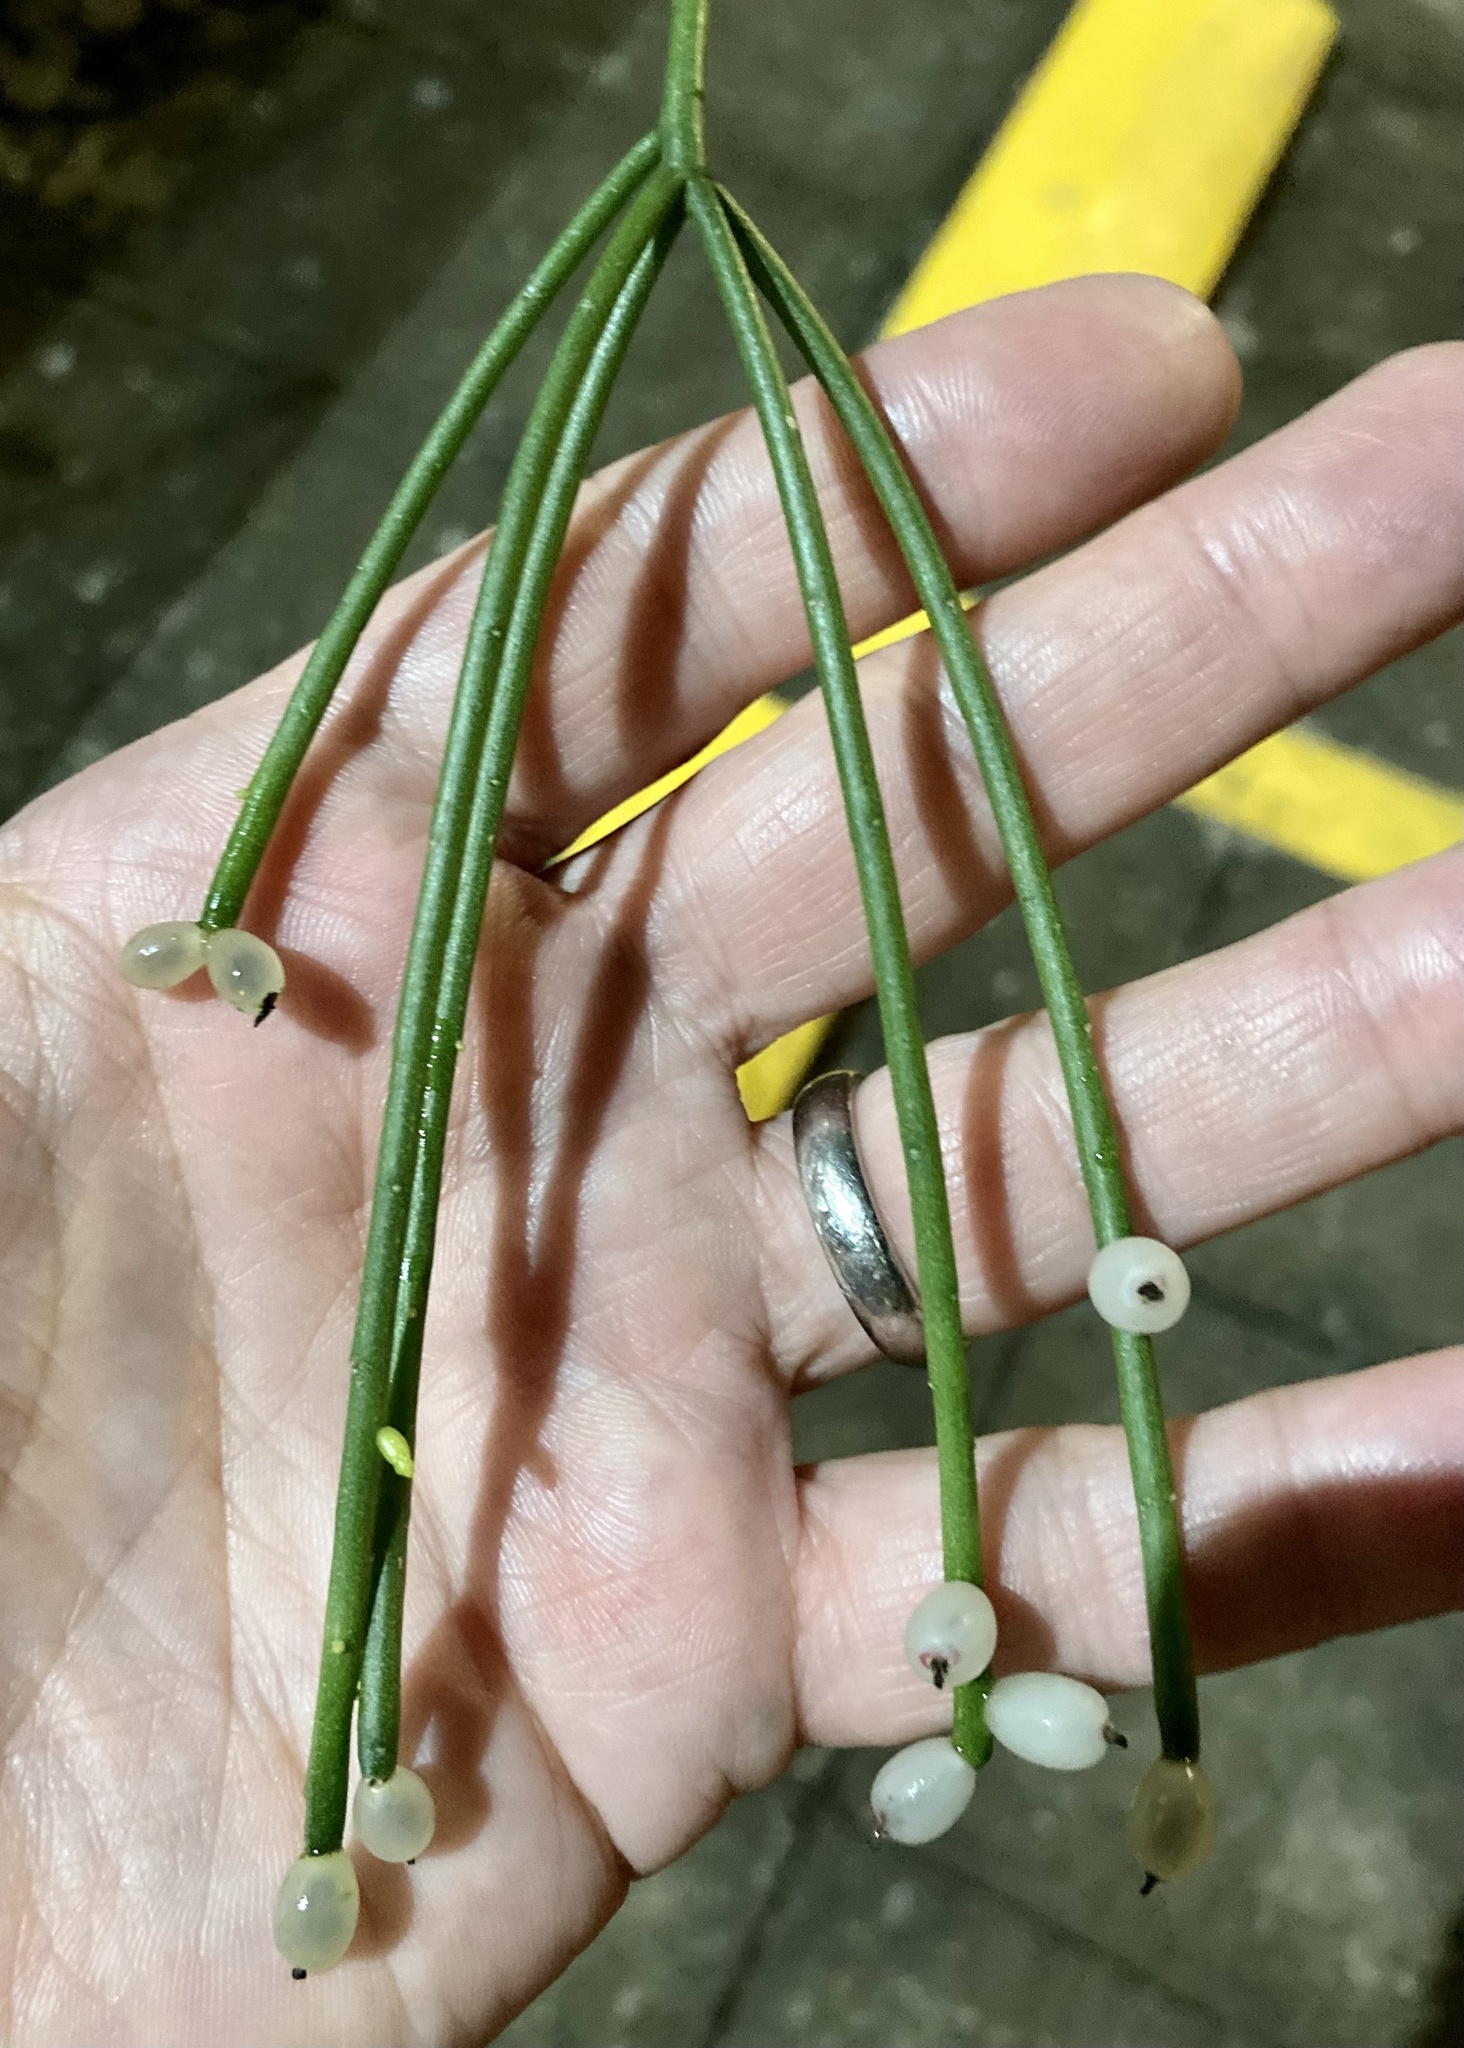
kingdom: Plantae
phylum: Tracheophyta
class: Magnoliopsida
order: Caryophyllales
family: Cactaceae
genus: Rhipsalis
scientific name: Rhipsalis baccifera
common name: Mistletoe cactus
